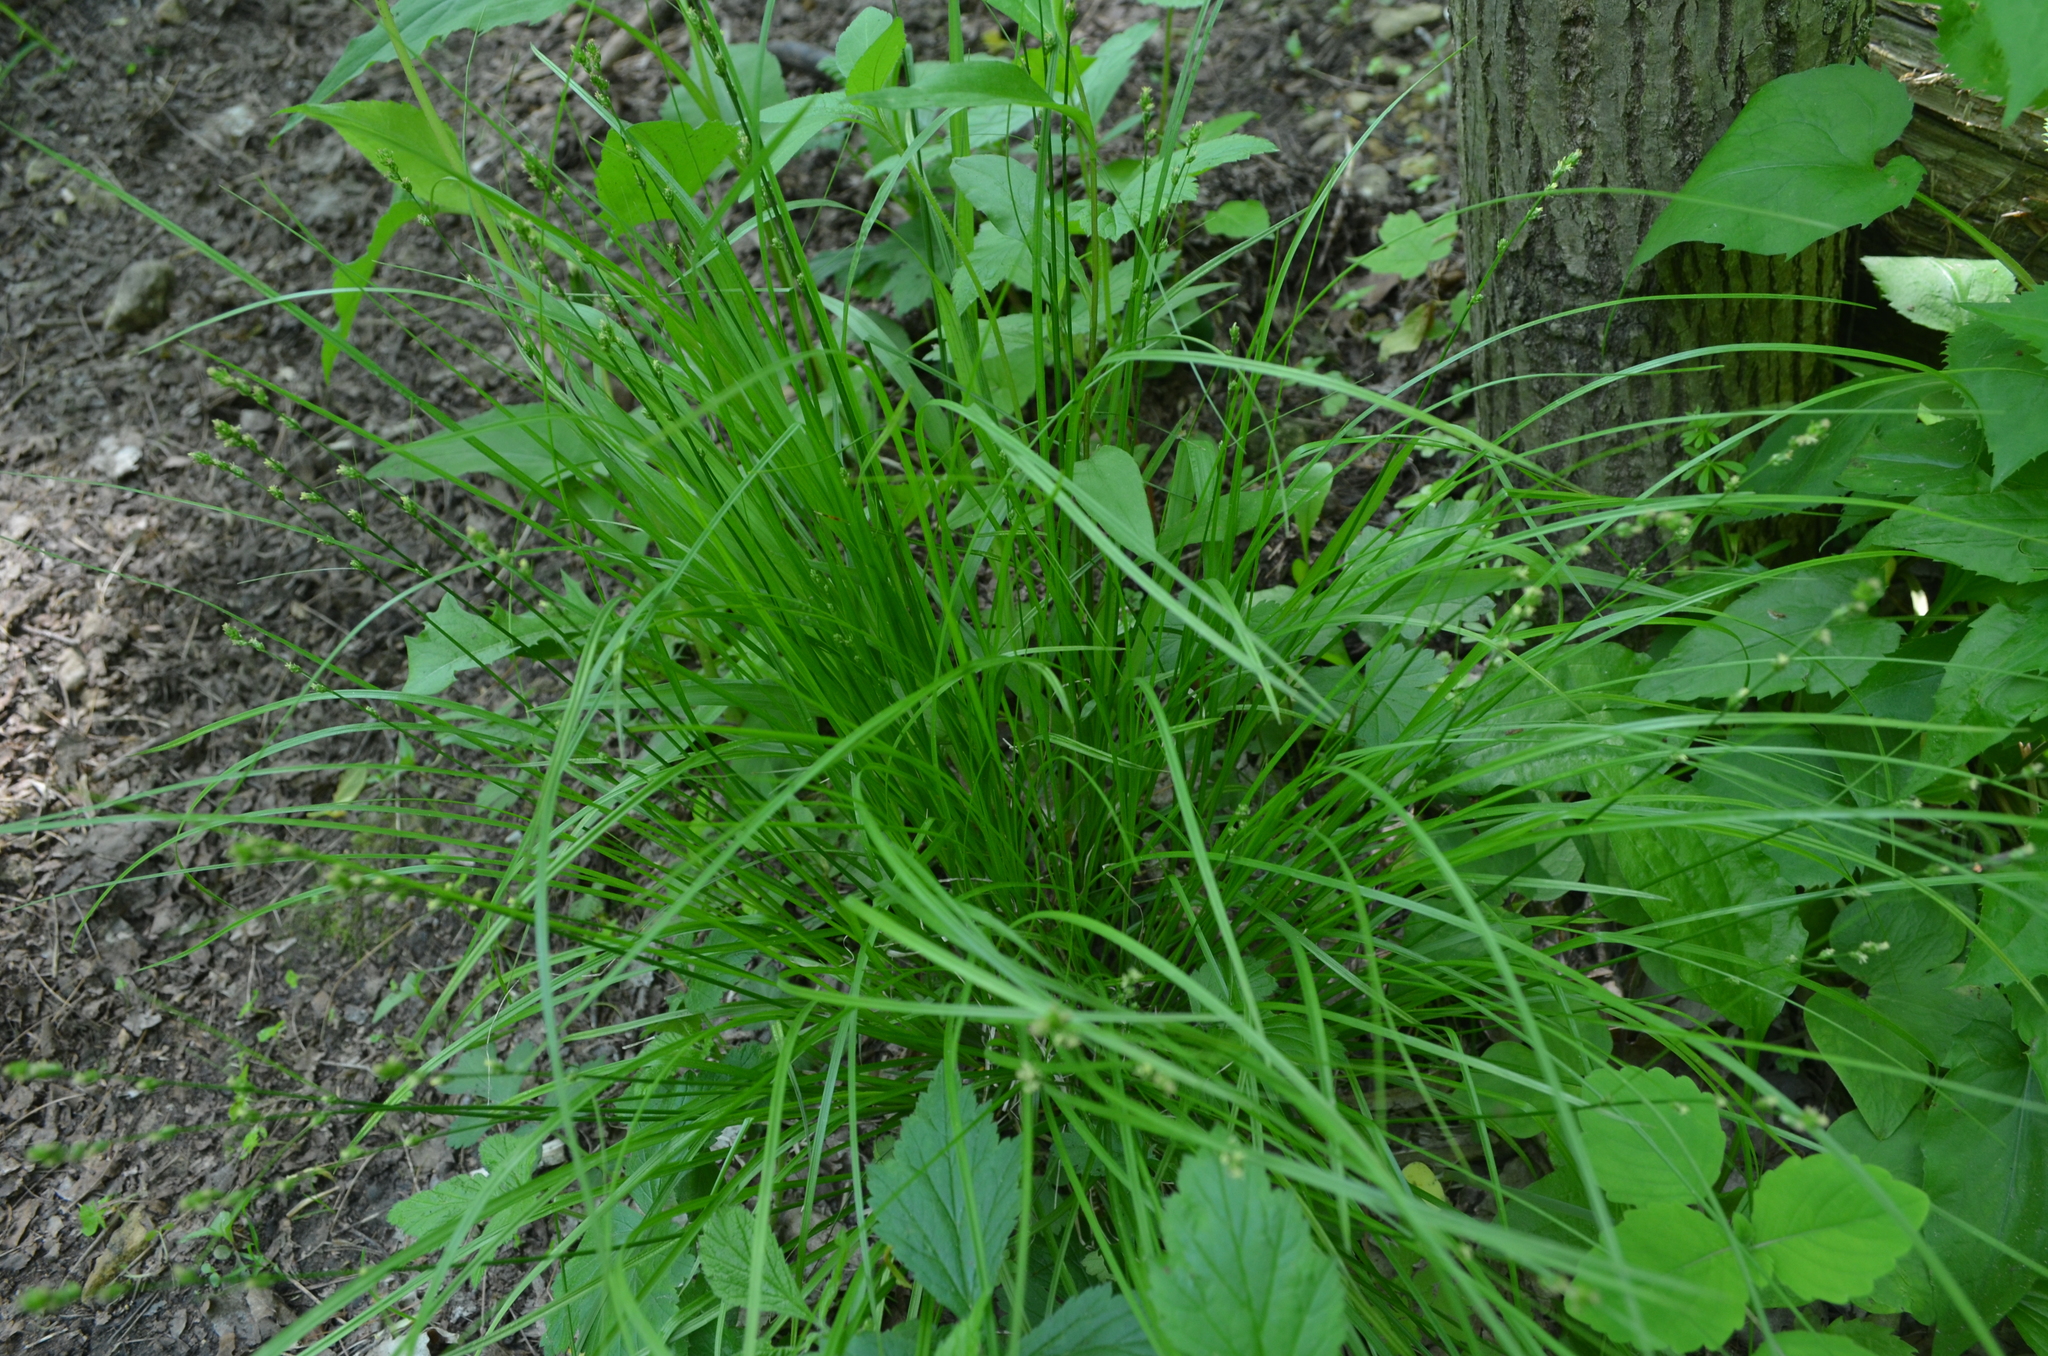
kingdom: Plantae
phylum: Tracheophyta
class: Liliopsida
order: Poales
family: Cyperaceae
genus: Carex
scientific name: Carex radiata
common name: Eastern star sedge
